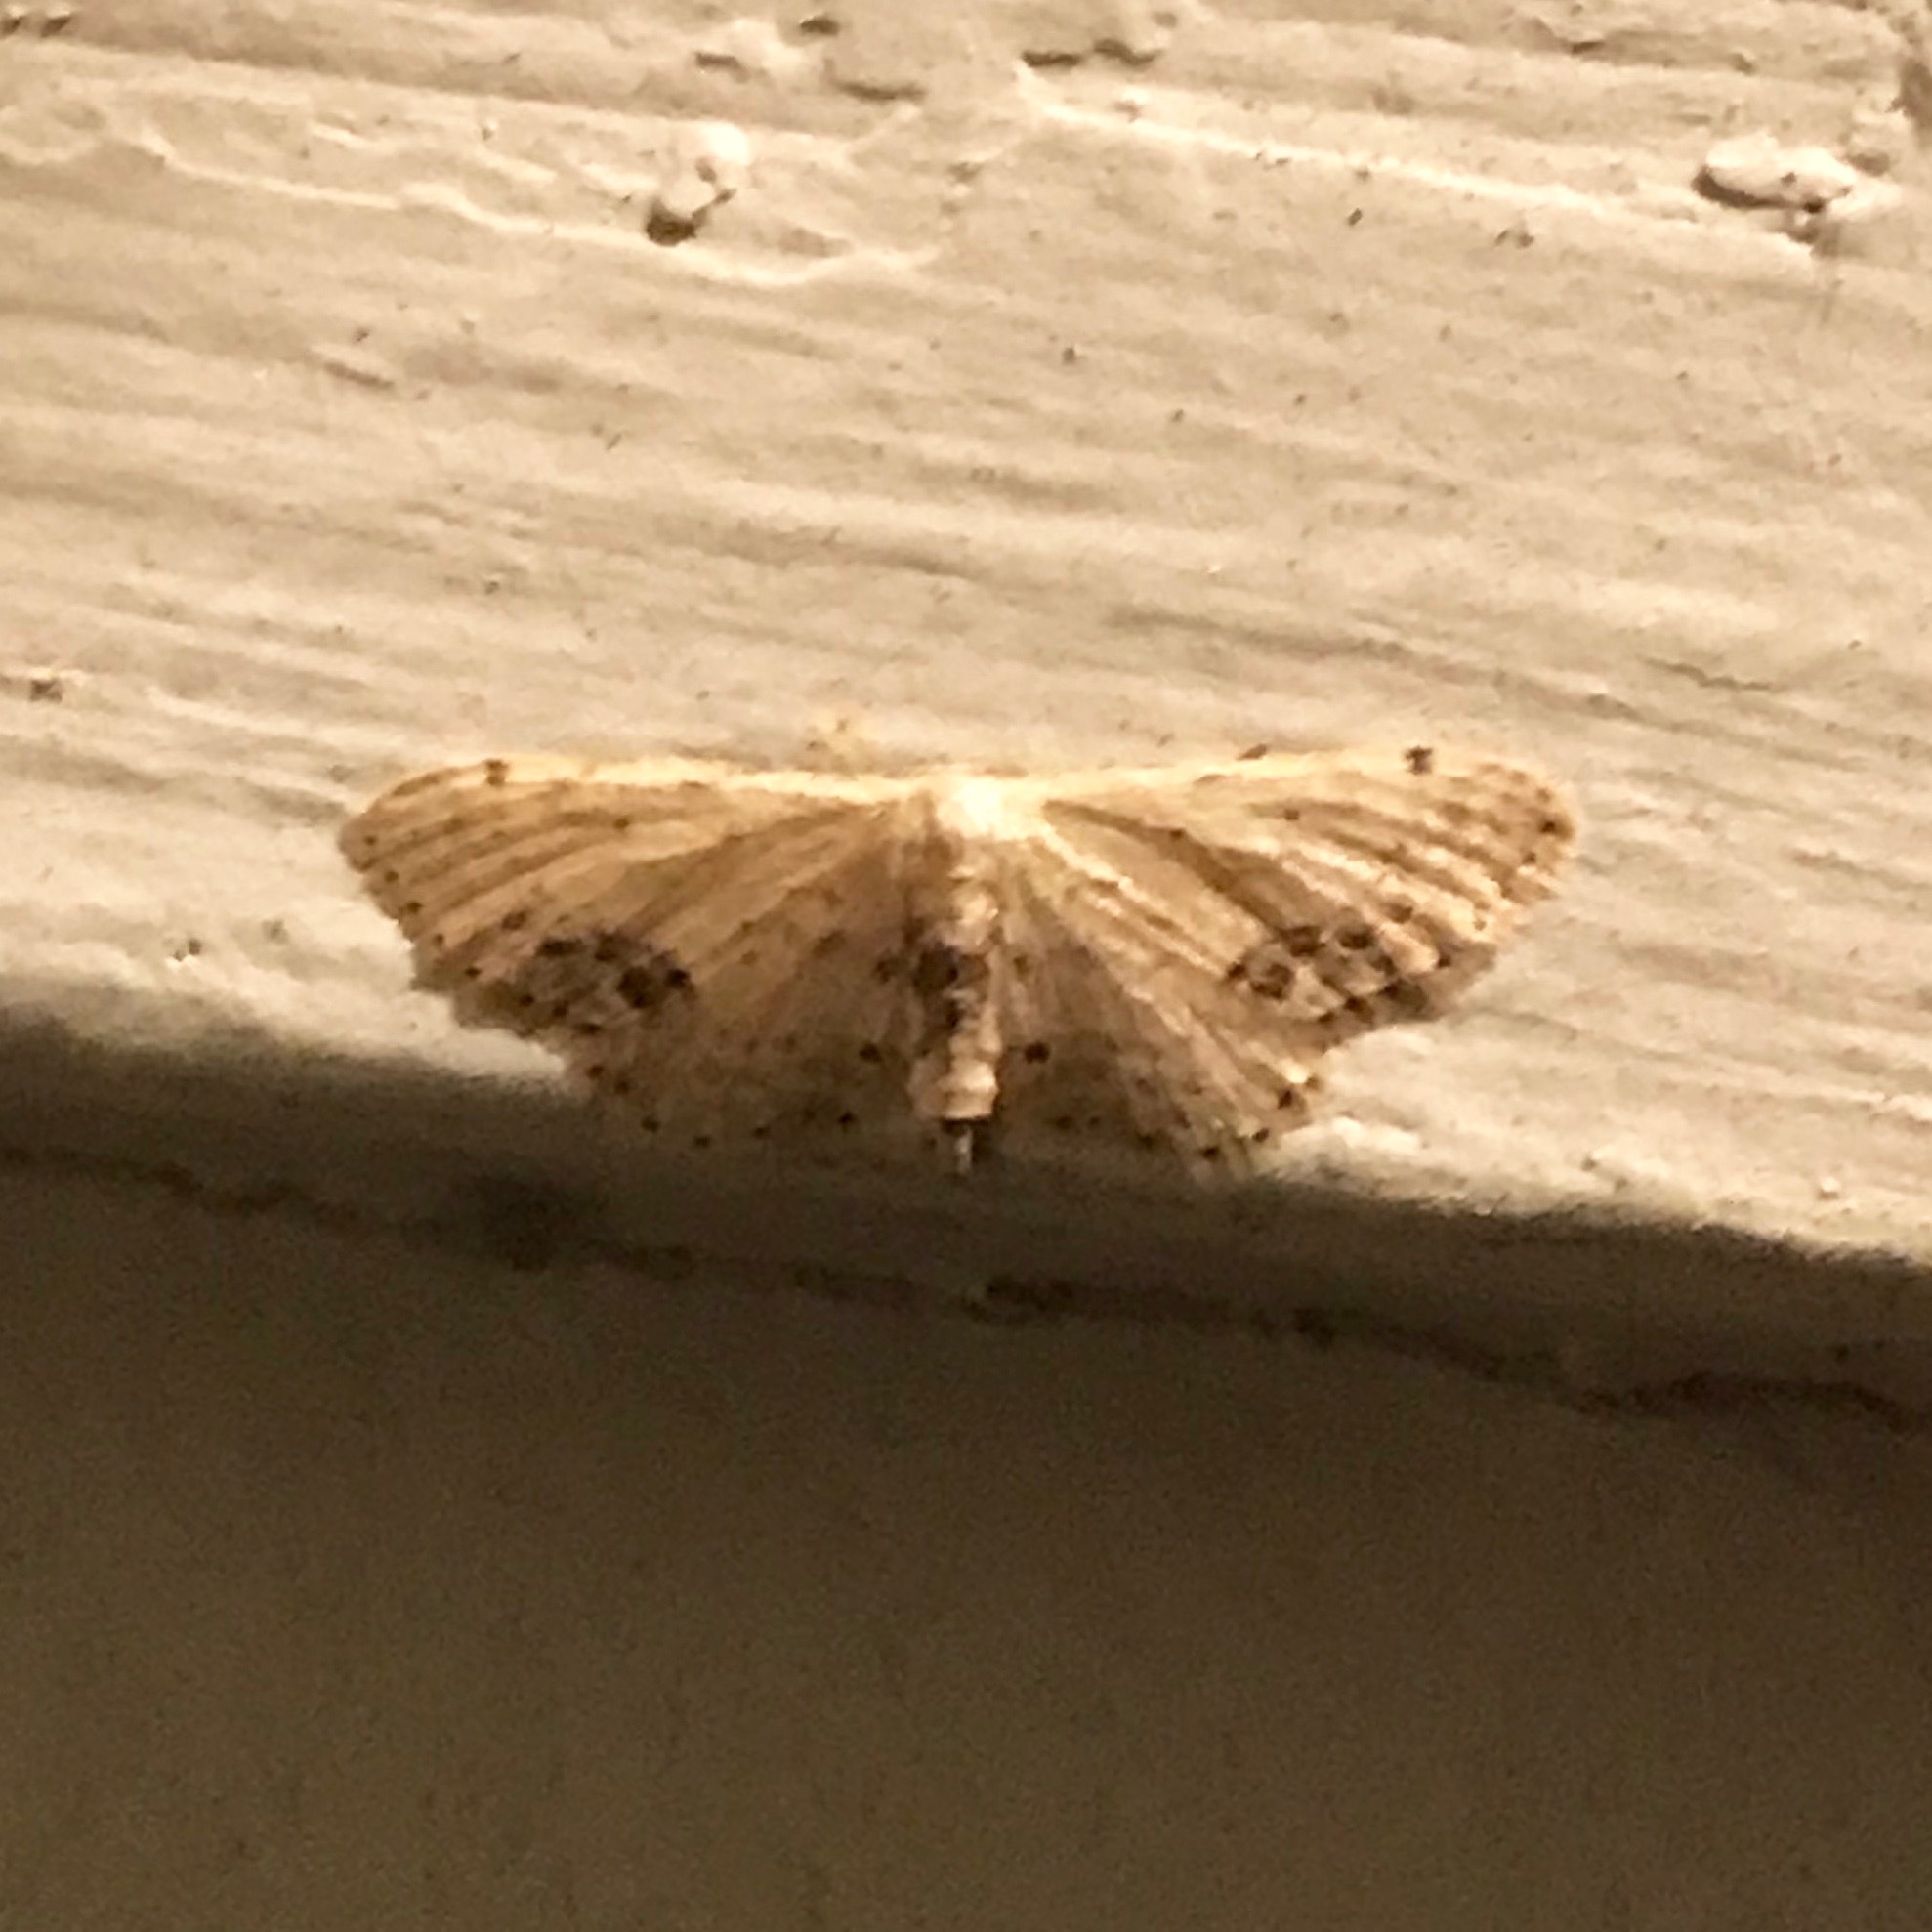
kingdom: Animalia
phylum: Arthropoda
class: Insecta
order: Lepidoptera
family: Geometridae
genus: Idaea
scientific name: Idaea dimidiata
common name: Single-dotted wave
